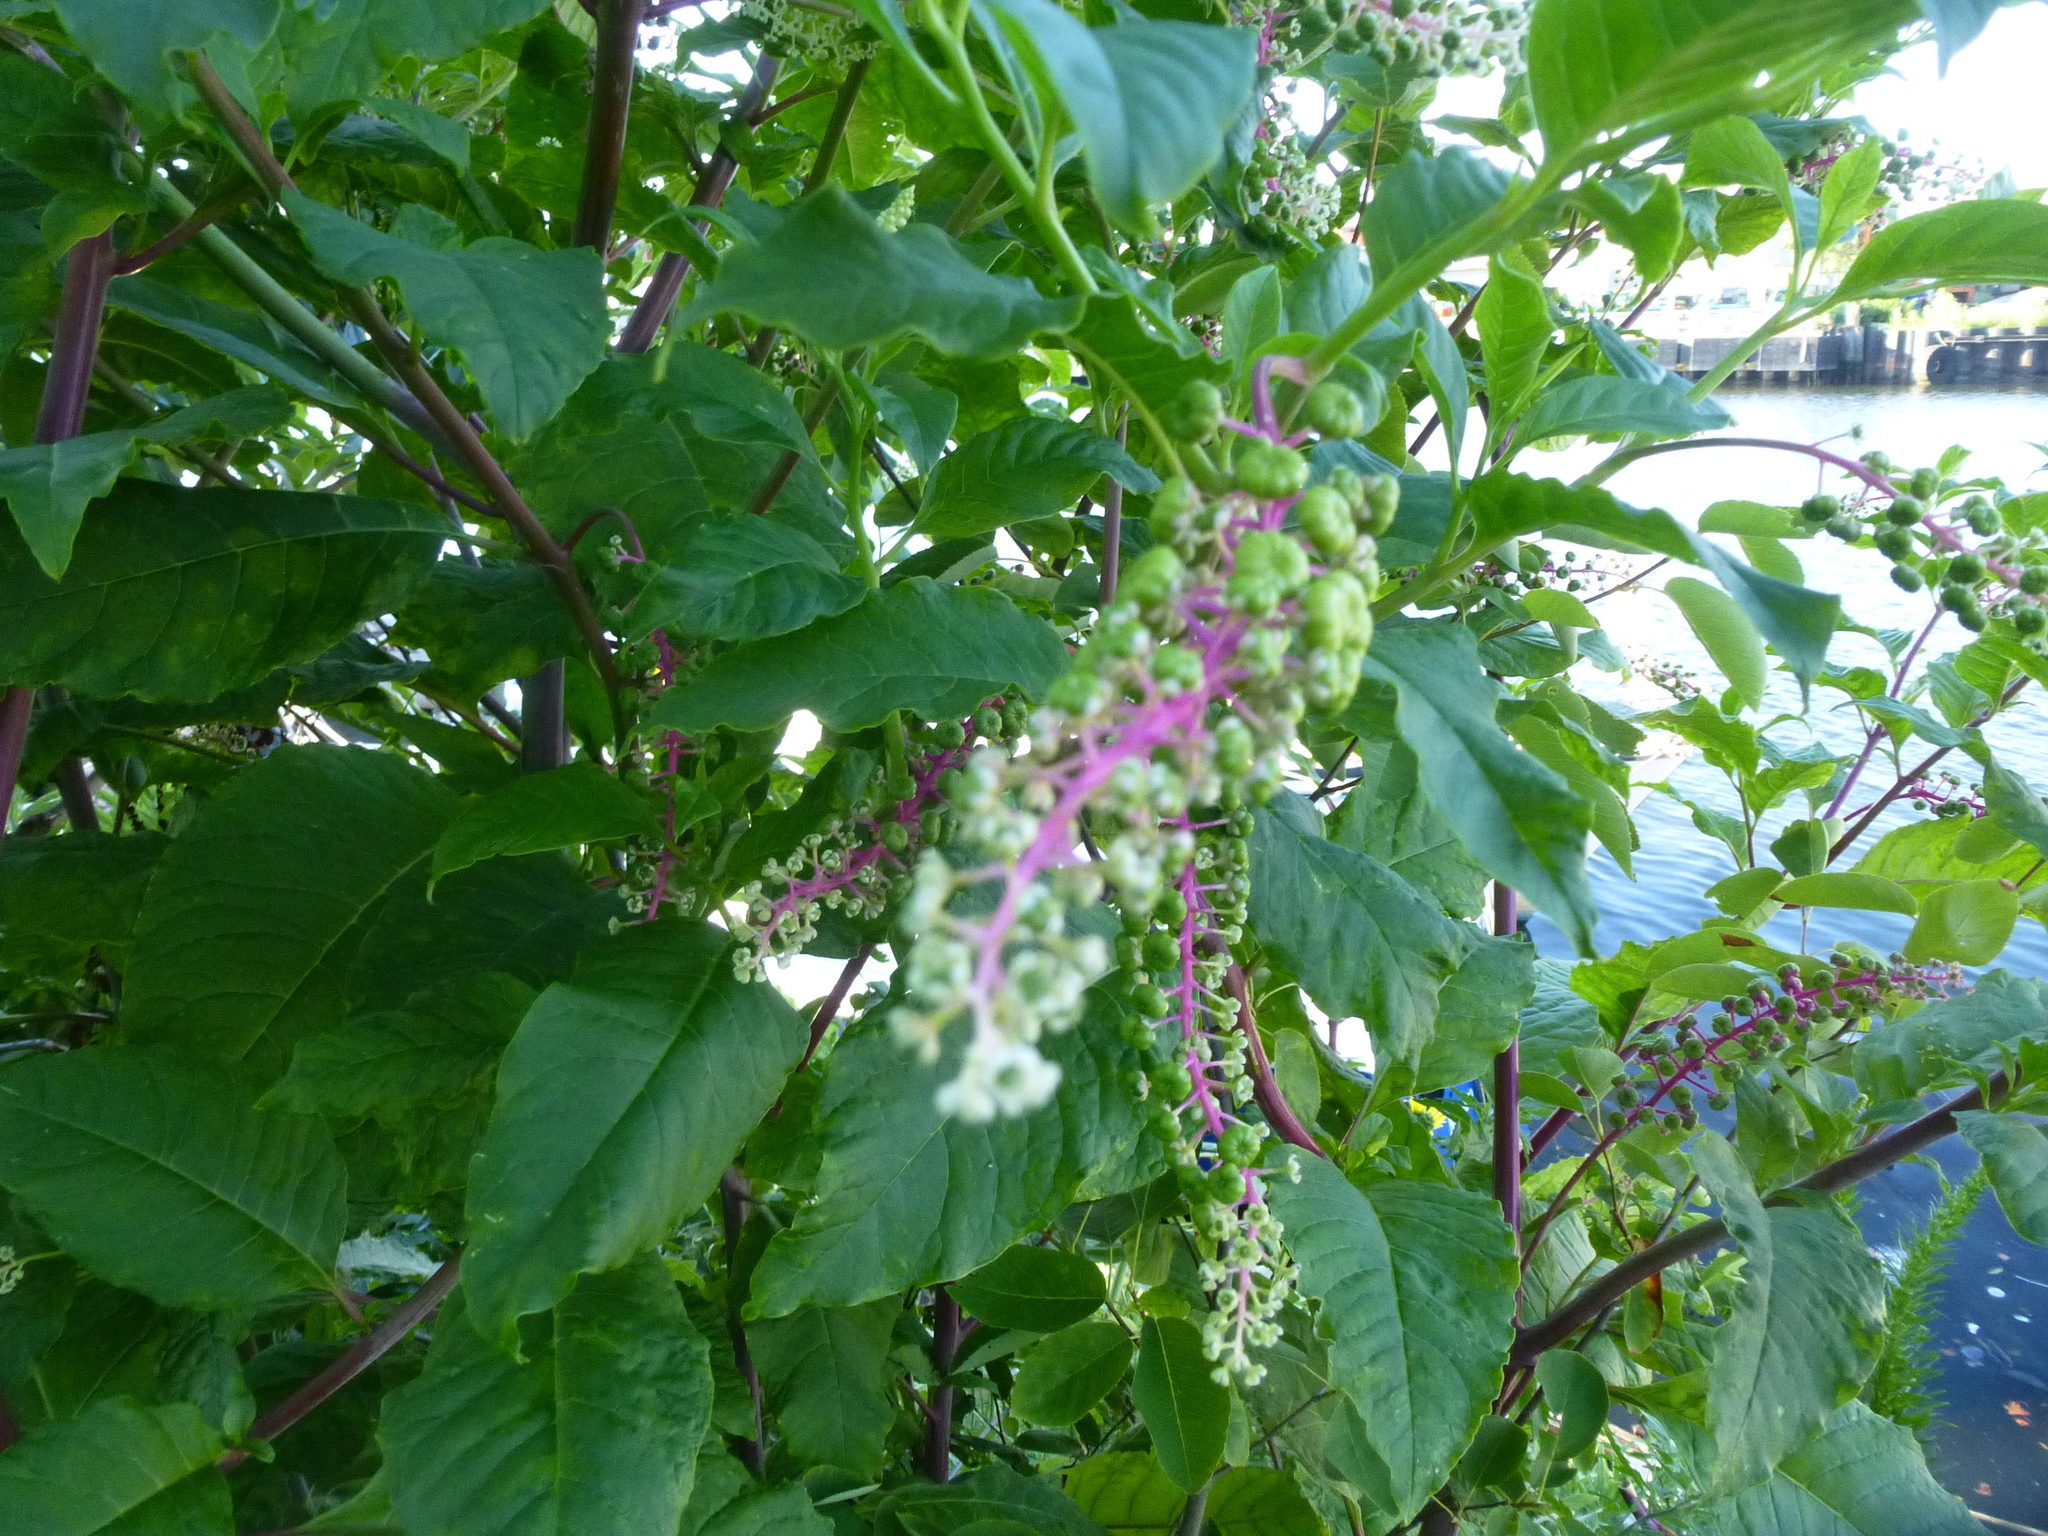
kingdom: Plantae
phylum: Tracheophyta
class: Magnoliopsida
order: Caryophyllales
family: Phytolaccaceae
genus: Phytolacca
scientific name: Phytolacca americana
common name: American pokeweed
